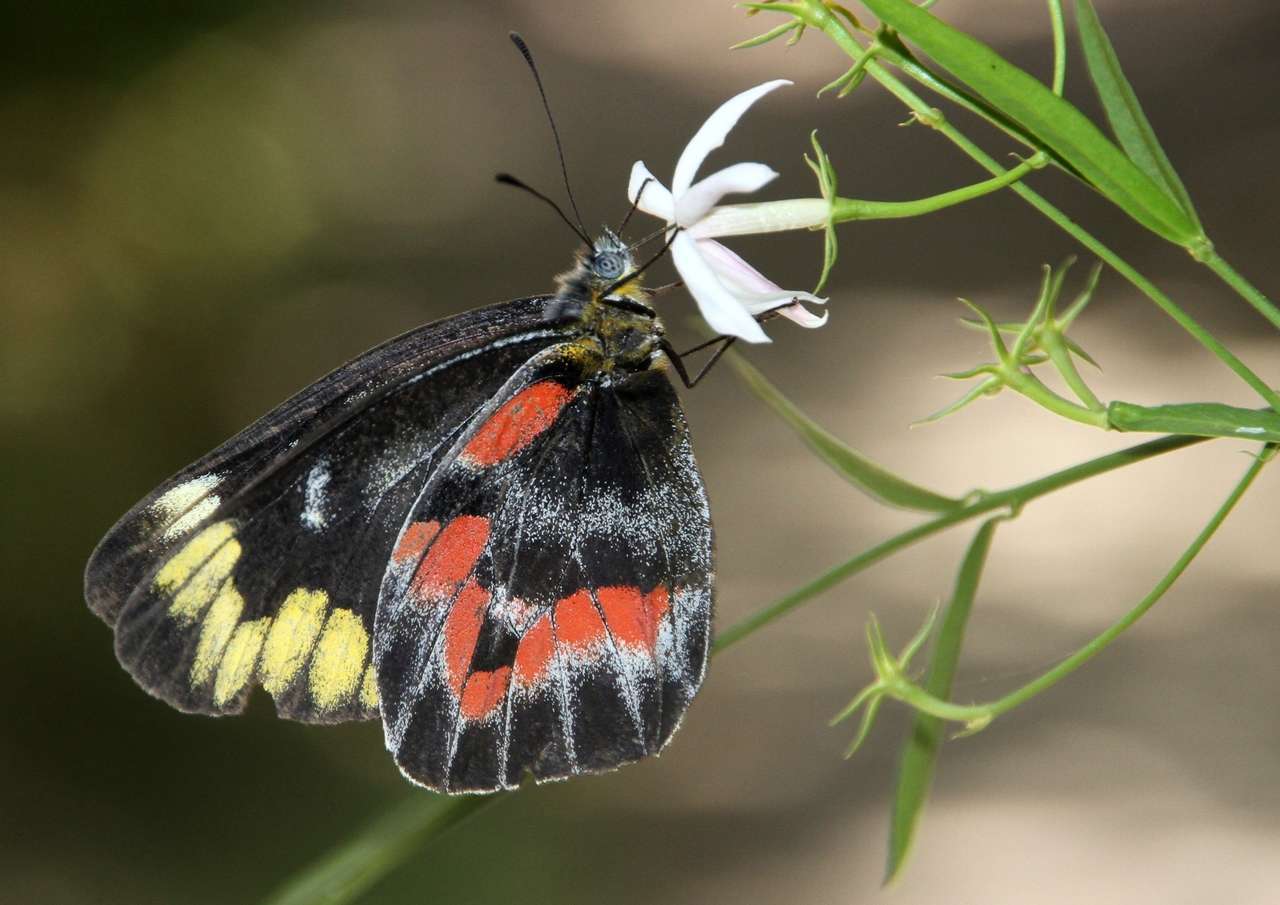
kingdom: Animalia
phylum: Arthropoda
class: Insecta
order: Lepidoptera
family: Pieridae
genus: Delias
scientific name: Delias harpalyce
